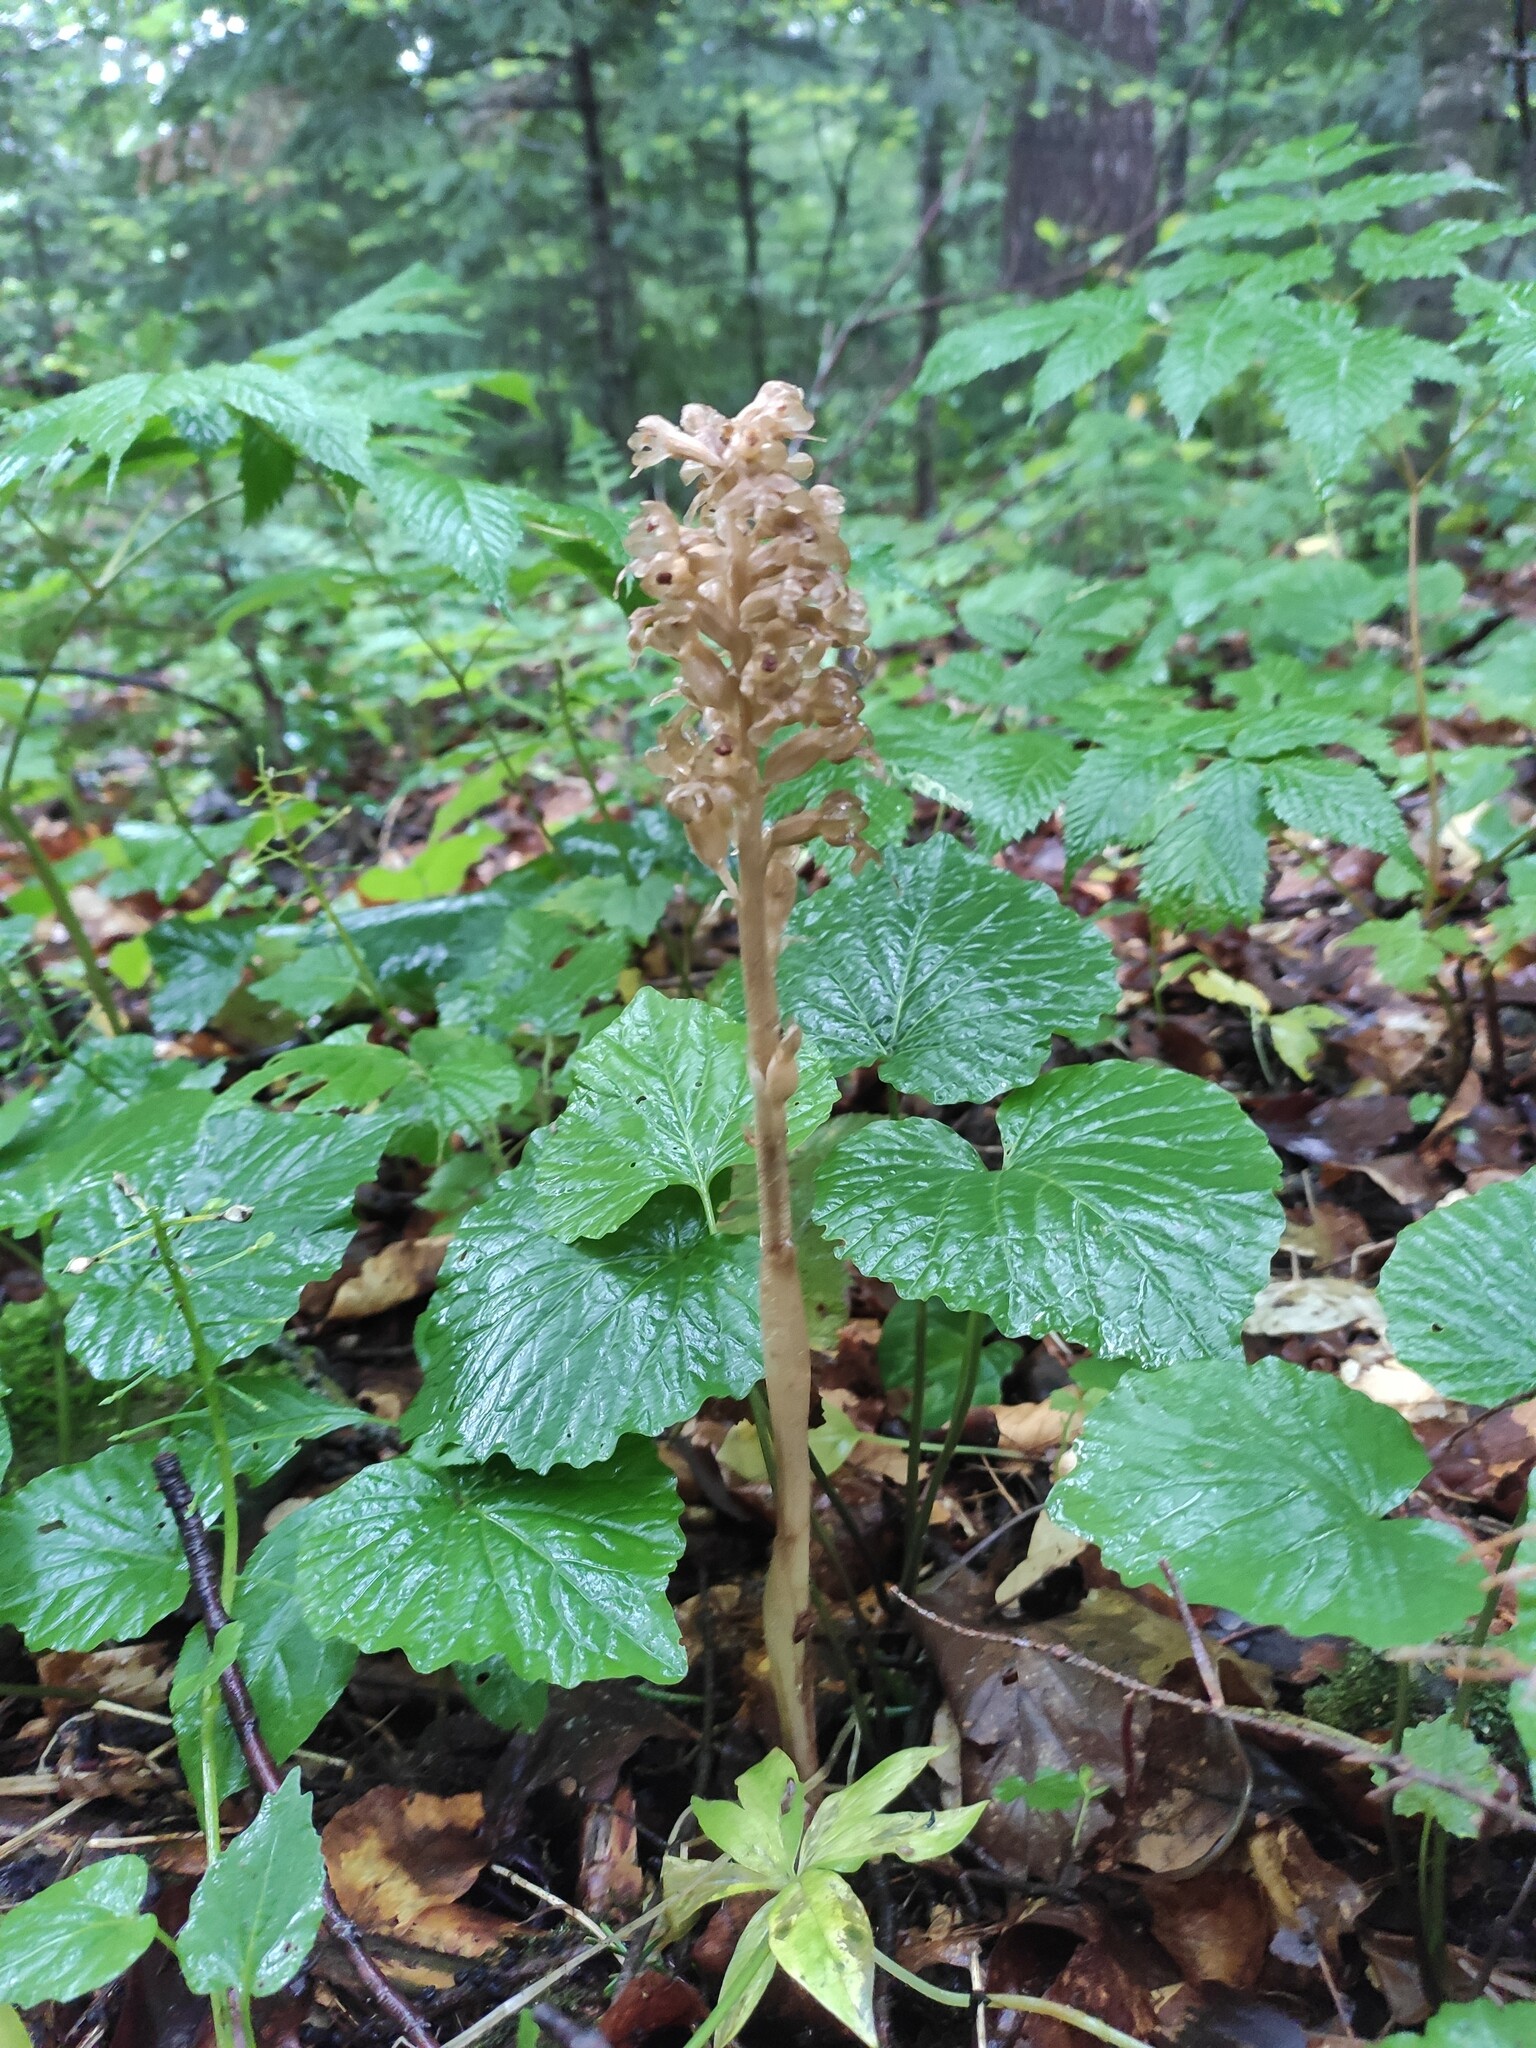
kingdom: Plantae
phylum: Tracheophyta
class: Liliopsida
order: Asparagales
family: Orchidaceae
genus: Neottia
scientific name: Neottia nidus-avis
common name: Bird's-nest orchid
